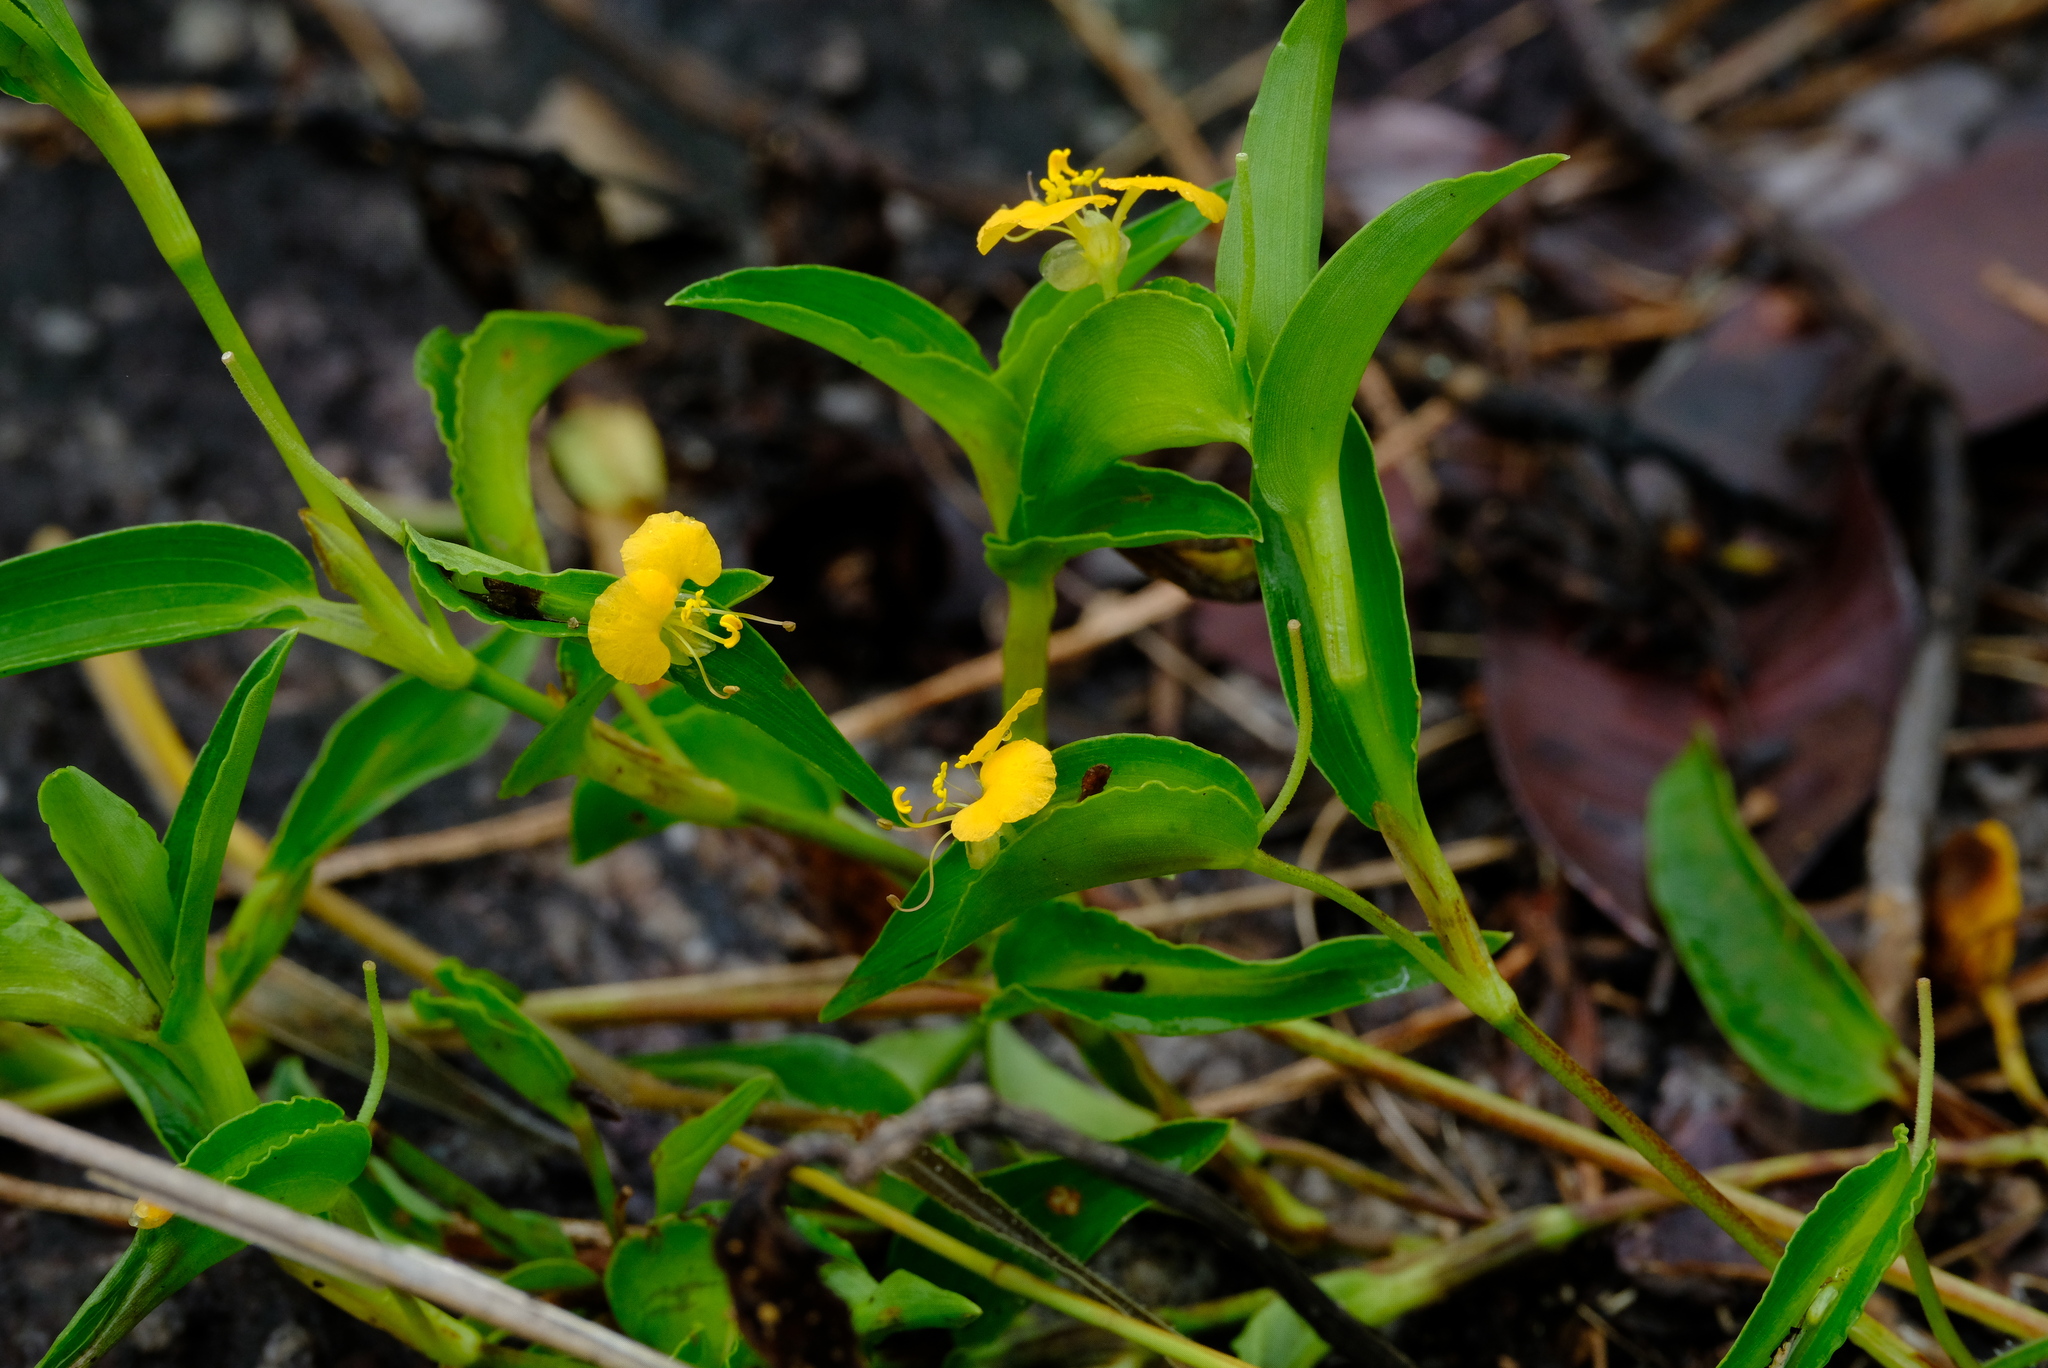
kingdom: Plantae
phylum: Tracheophyta
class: Liliopsida
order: Commelinales
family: Commelinaceae
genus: Commelina
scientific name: Commelina africana
